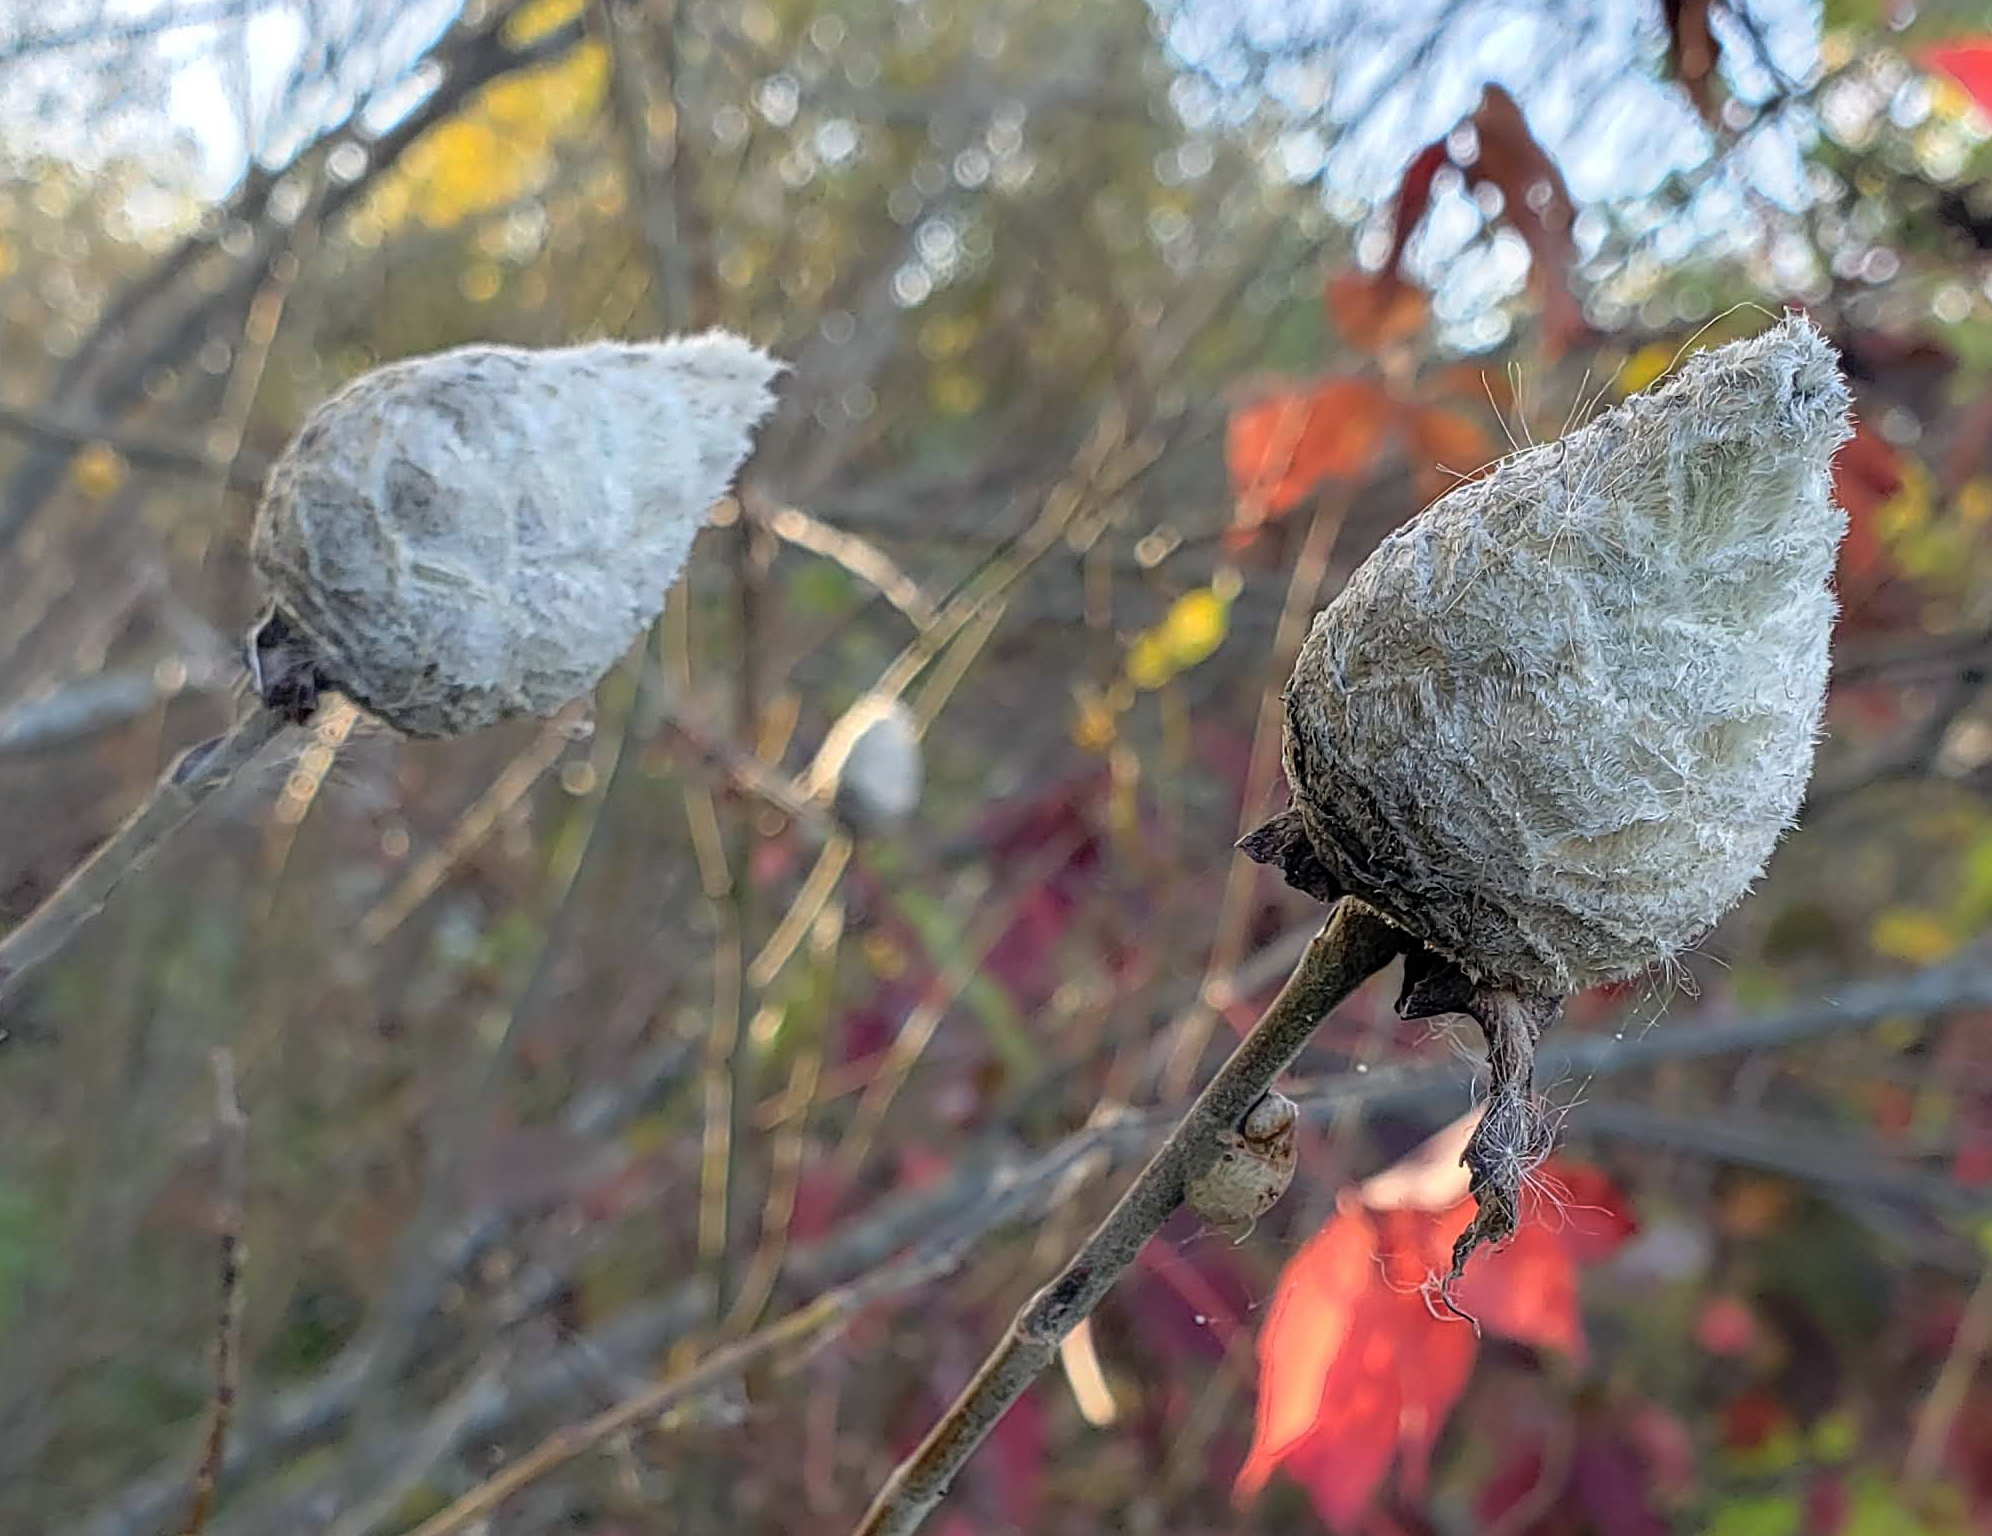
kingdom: Animalia
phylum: Arthropoda
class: Insecta
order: Diptera
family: Cecidomyiidae
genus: Rabdophaga
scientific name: Rabdophaga strobiloides
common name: Willow pinecone gall midge
